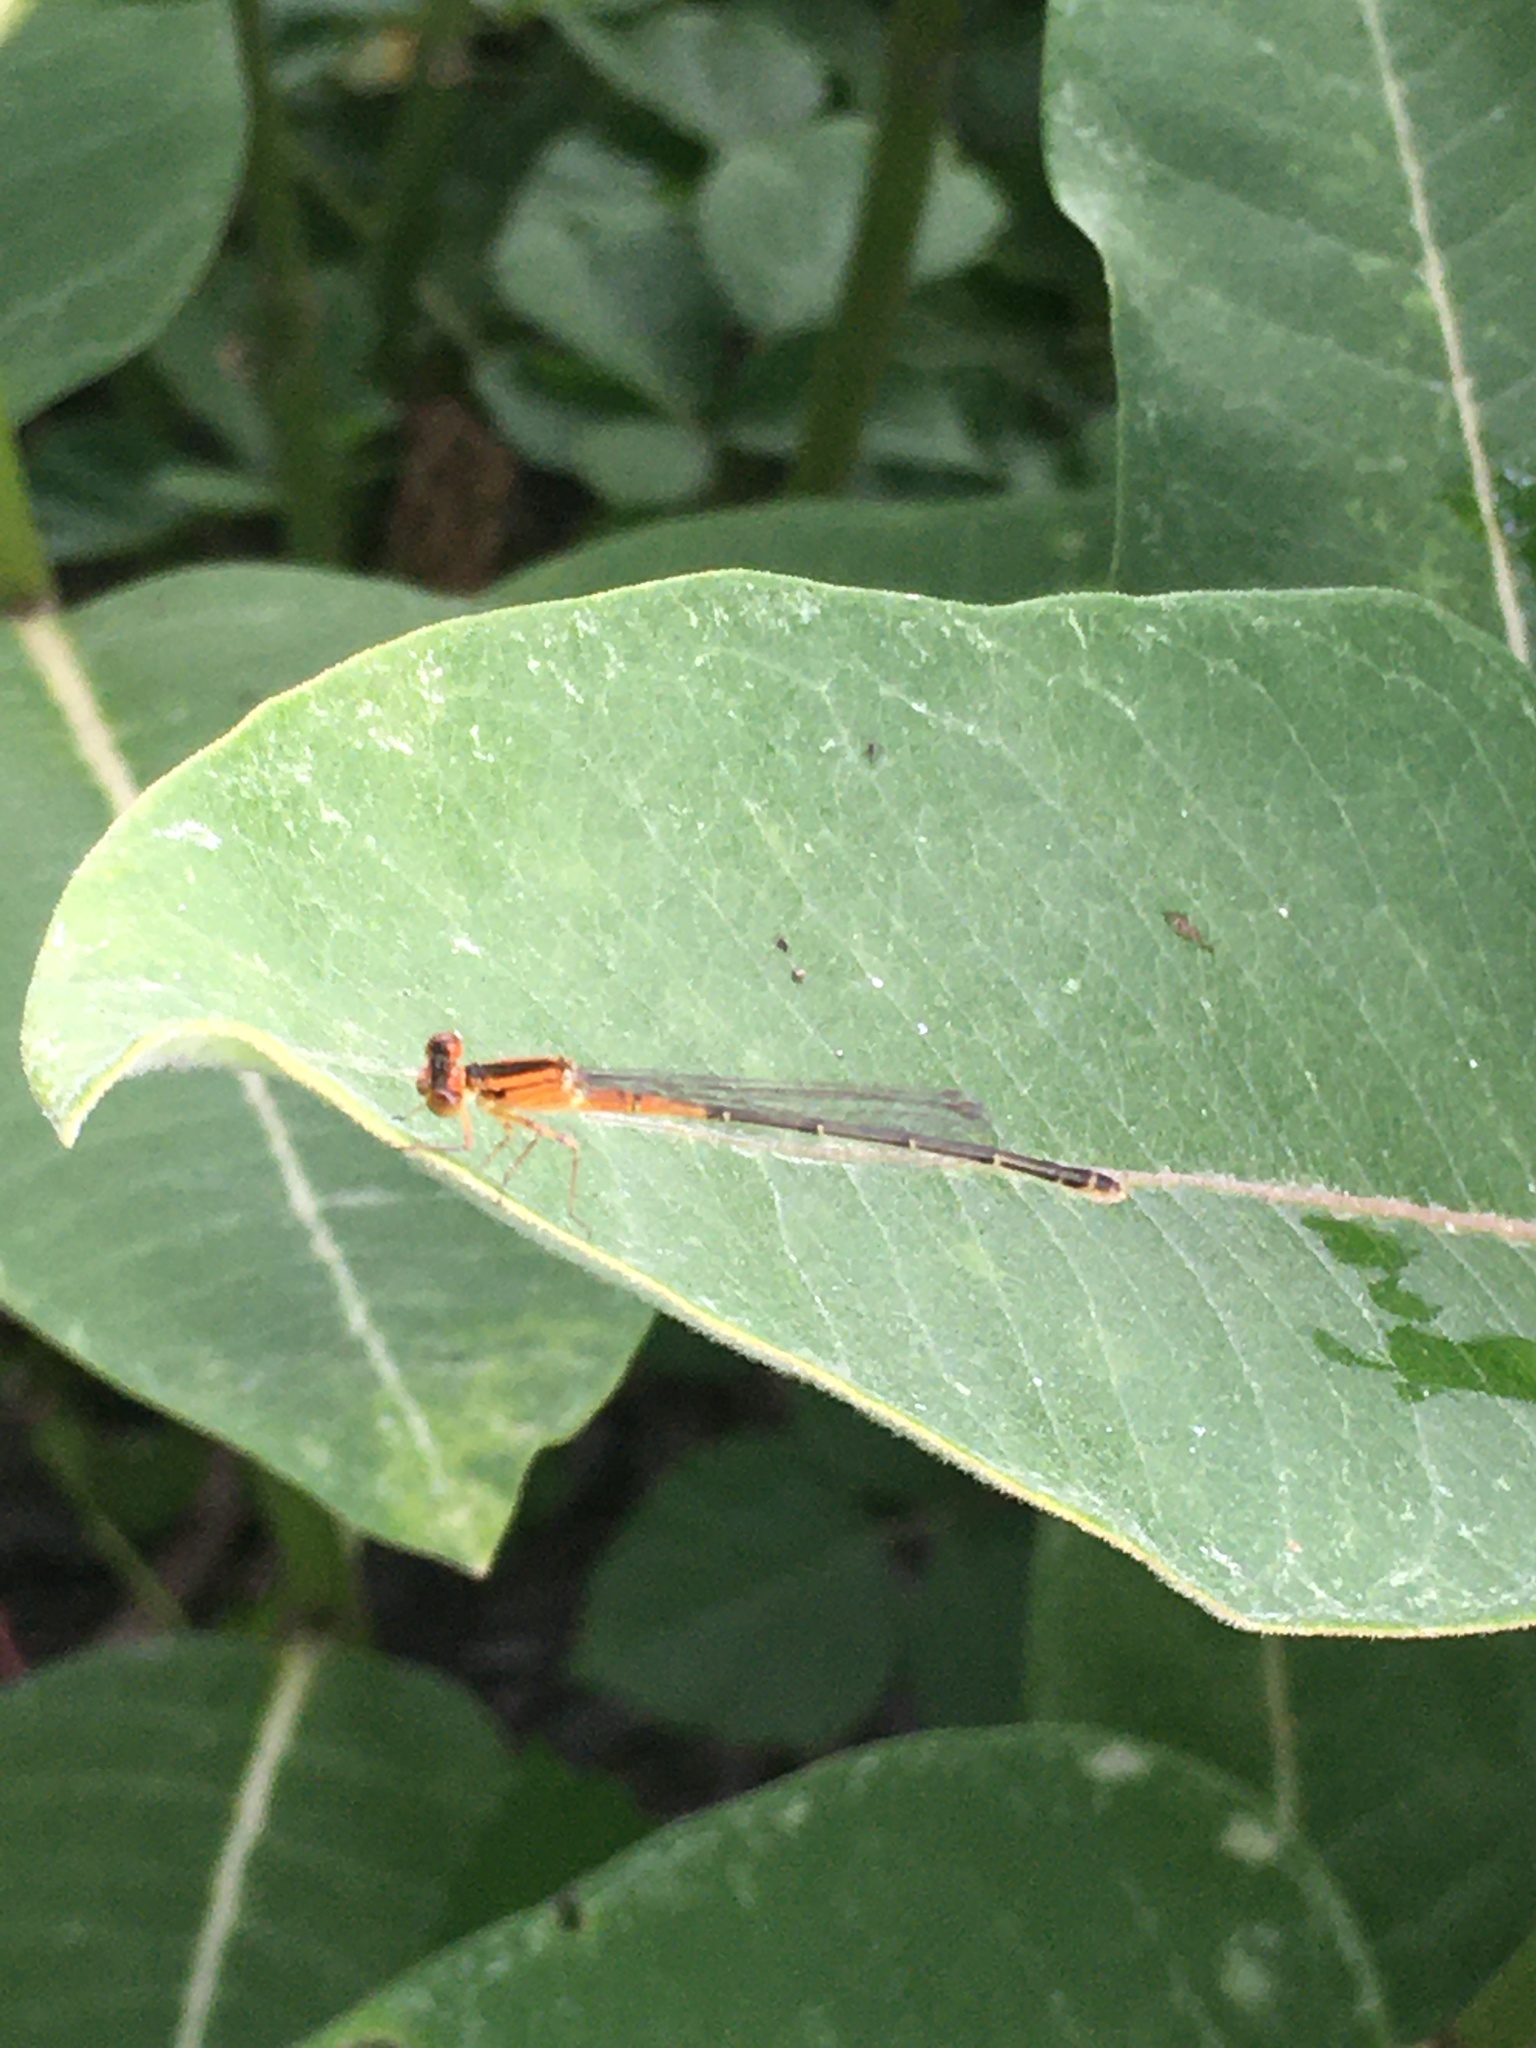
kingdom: Animalia
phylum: Arthropoda
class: Insecta
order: Odonata
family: Coenagrionidae
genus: Ischnura
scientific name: Ischnura verticalis
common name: Eastern forktail
